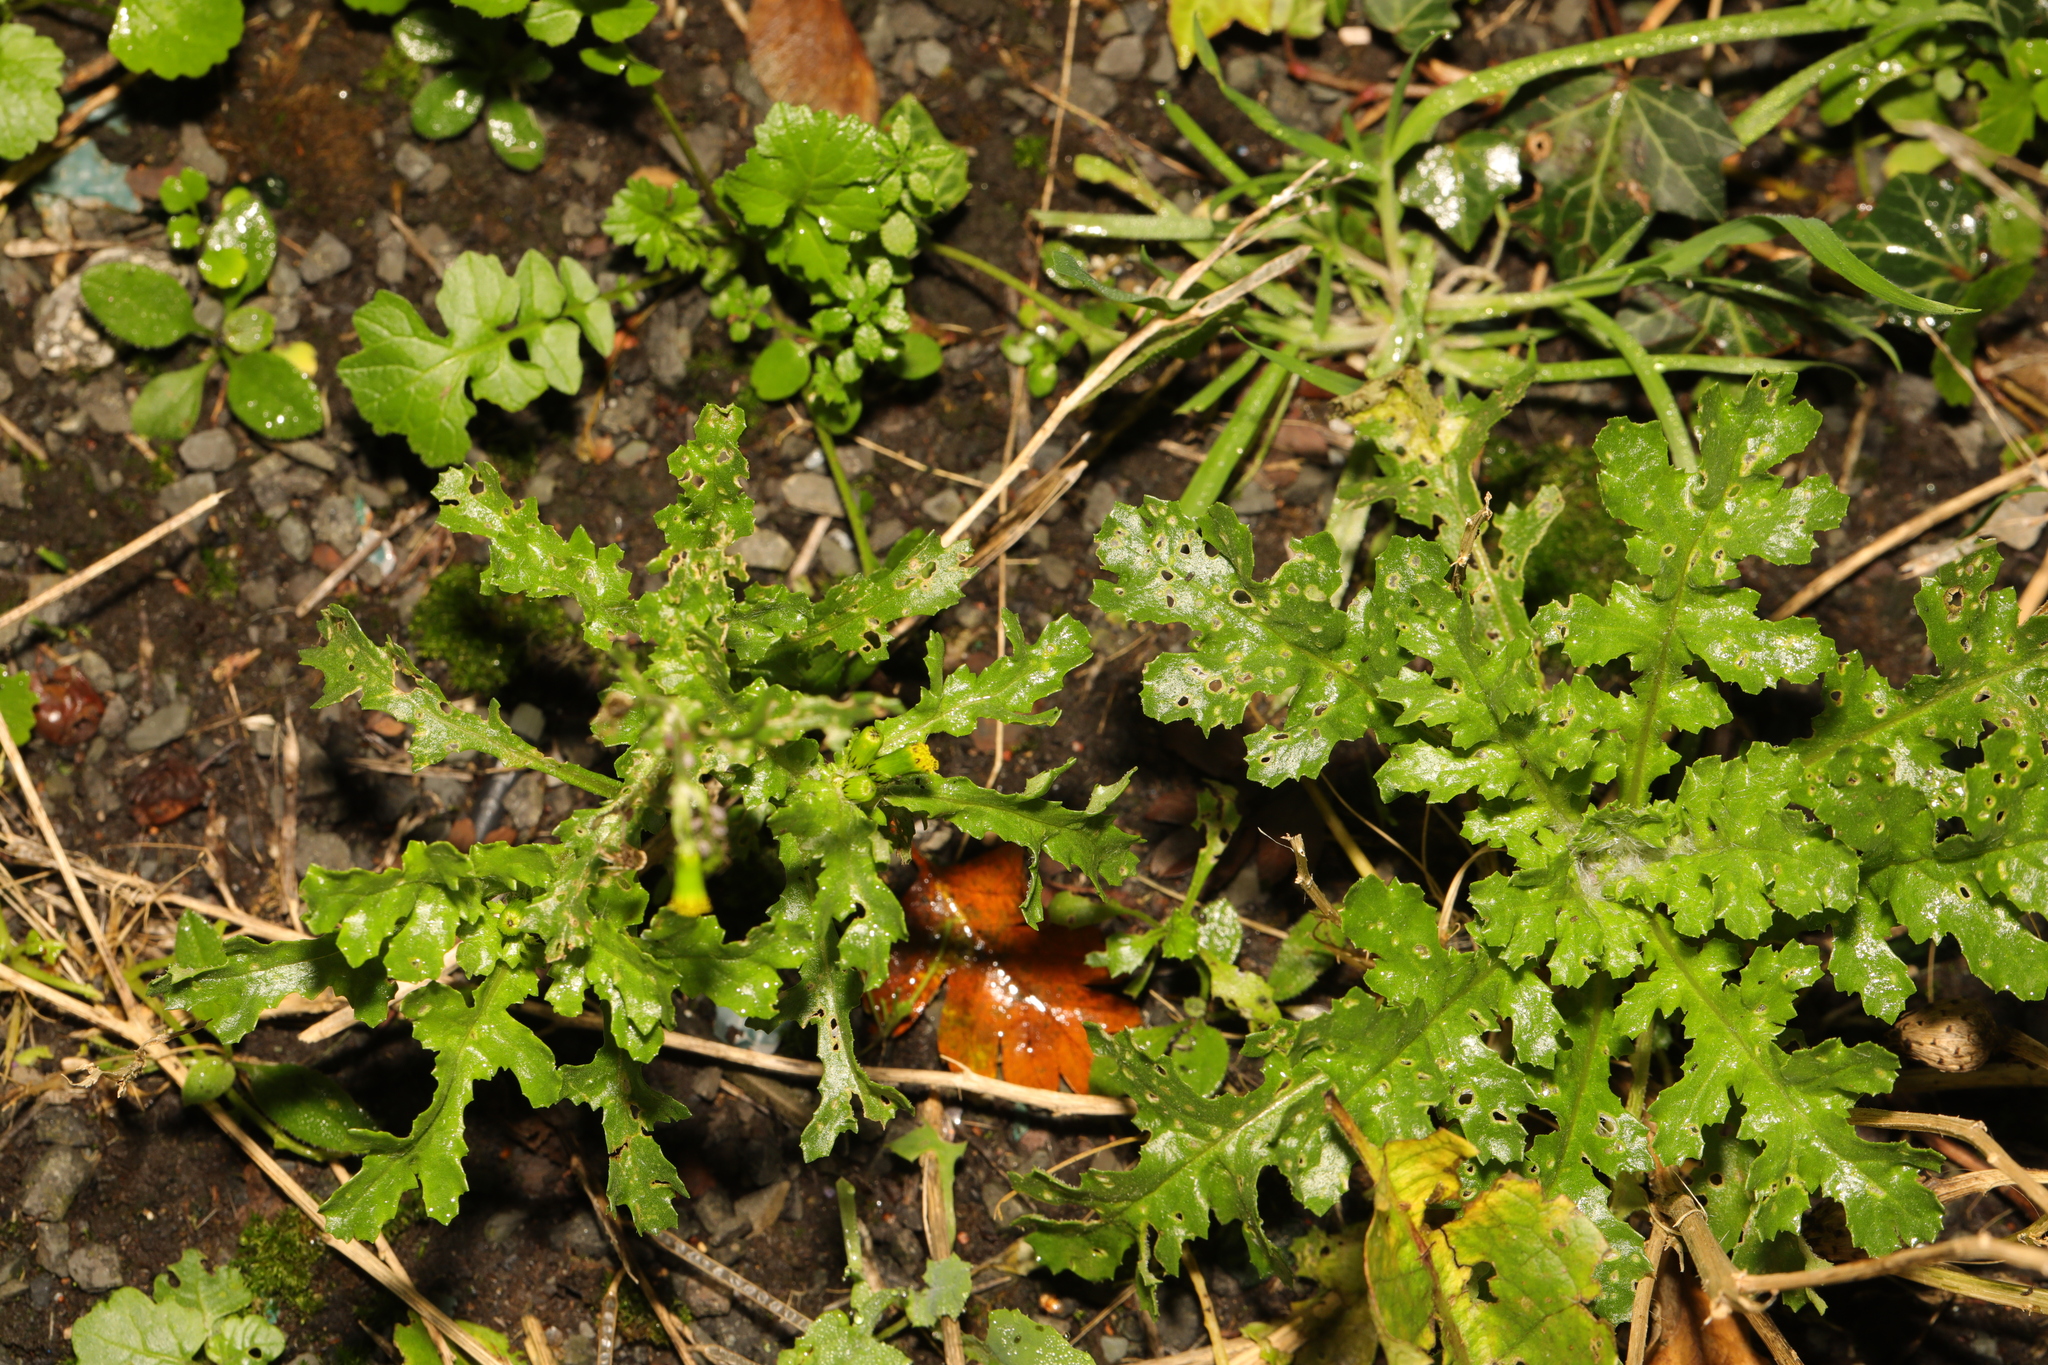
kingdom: Plantae
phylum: Tracheophyta
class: Magnoliopsida
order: Asterales
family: Asteraceae
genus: Senecio
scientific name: Senecio vulgaris
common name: Old-man-in-the-spring
